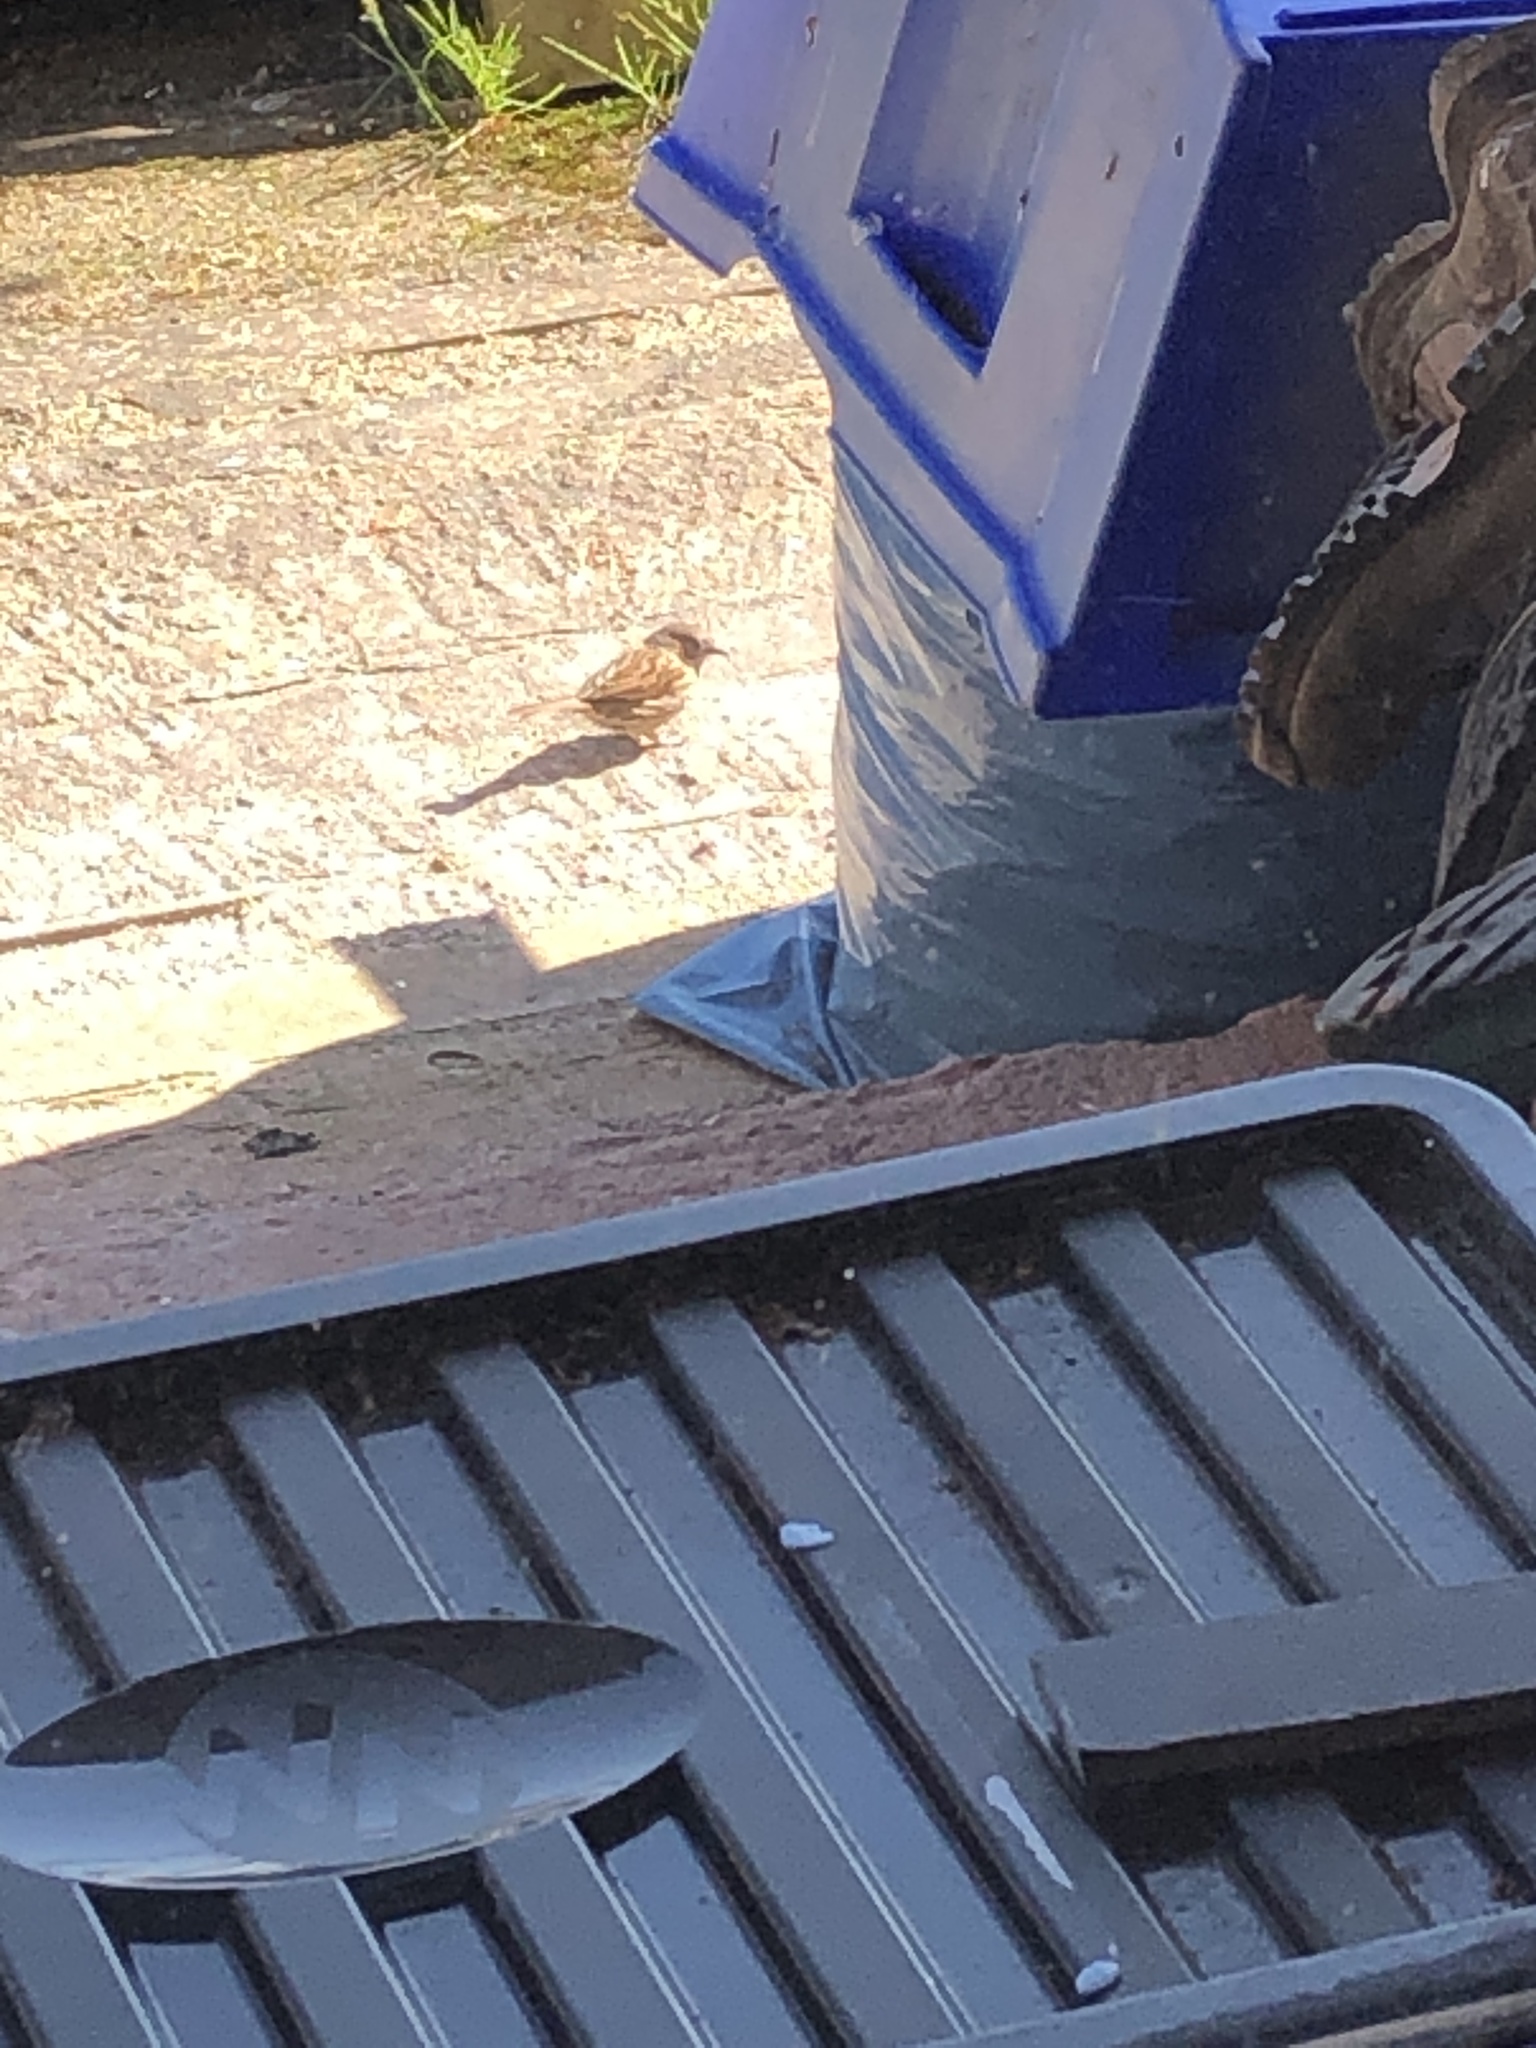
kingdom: Animalia
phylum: Chordata
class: Aves
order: Passeriformes
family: Prunellidae
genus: Prunella
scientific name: Prunella modularis
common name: Dunnock
